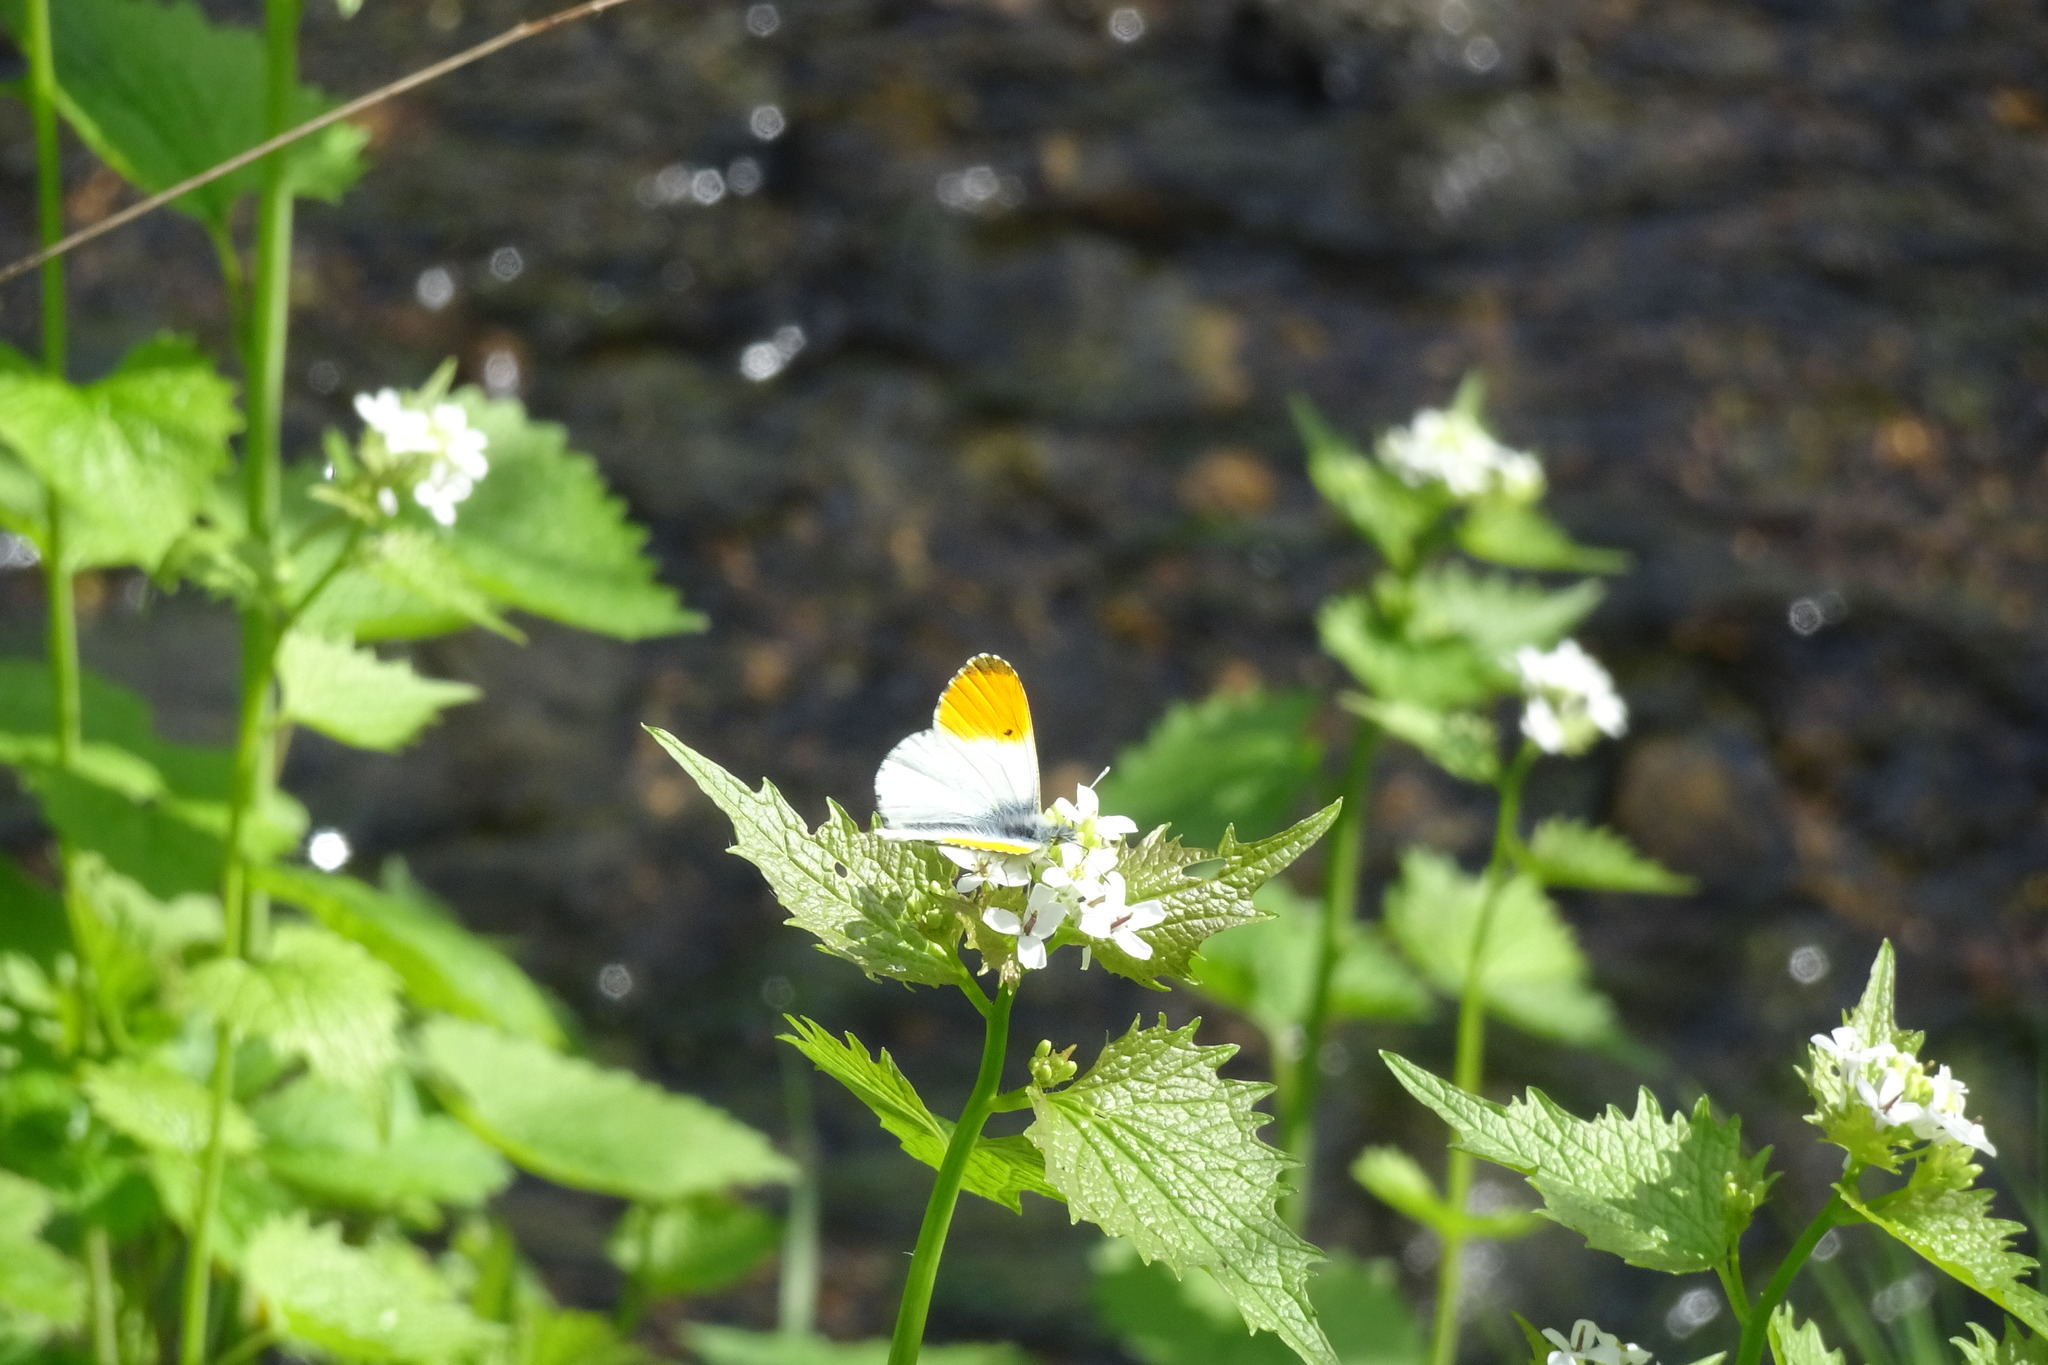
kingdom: Animalia
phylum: Arthropoda
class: Insecta
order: Lepidoptera
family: Pieridae
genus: Anthocharis
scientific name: Anthocharis cardamines
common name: Orange-tip
